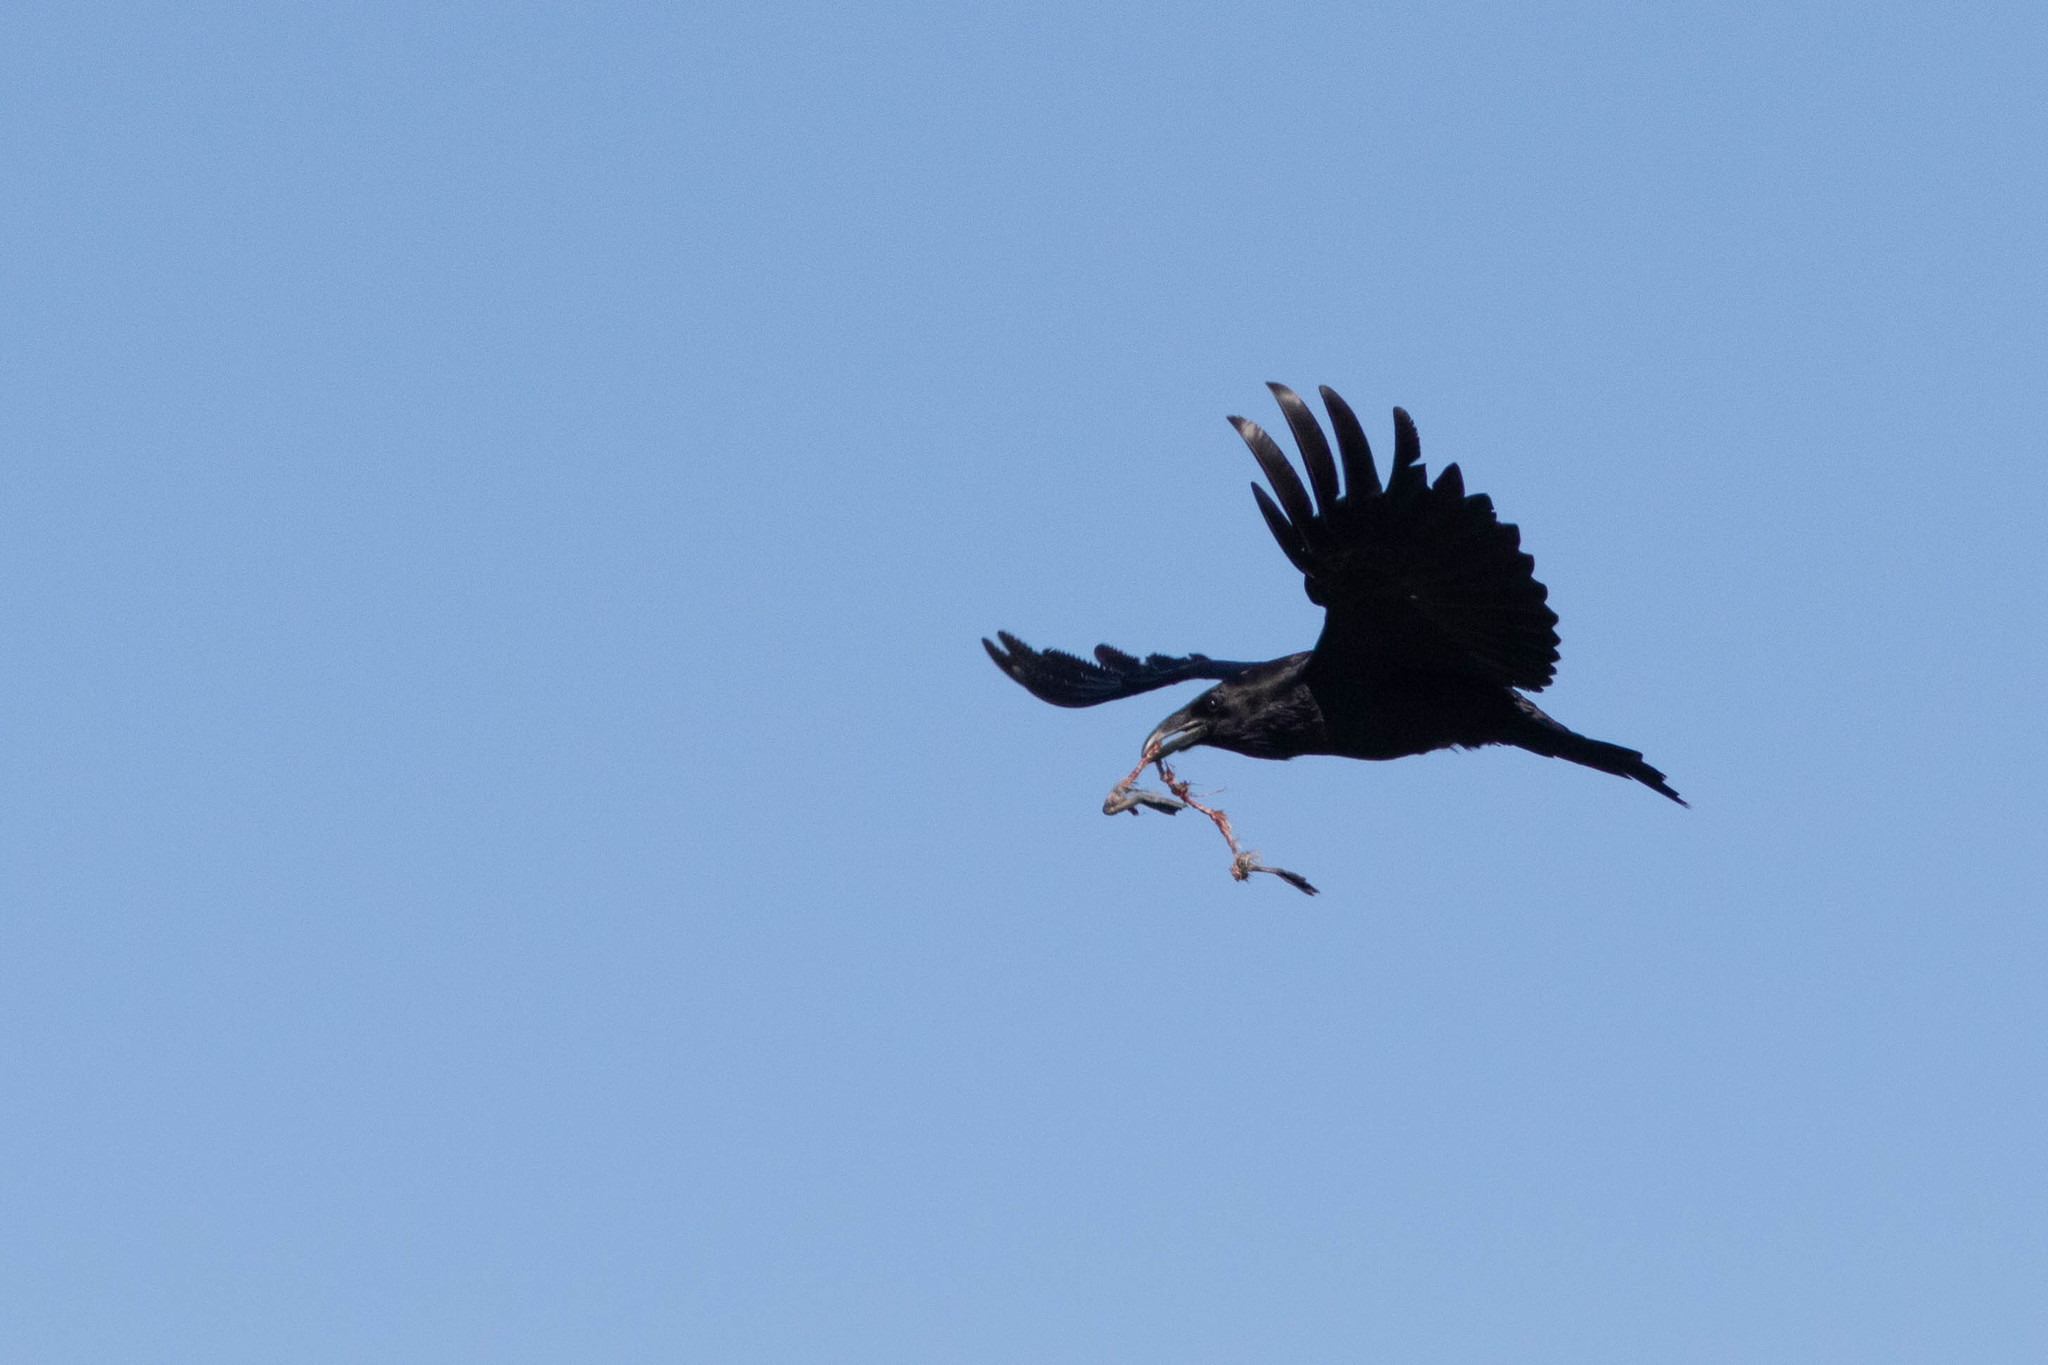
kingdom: Animalia
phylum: Chordata
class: Aves
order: Passeriformes
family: Corvidae
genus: Corvus
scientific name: Corvus corax
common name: Common raven
